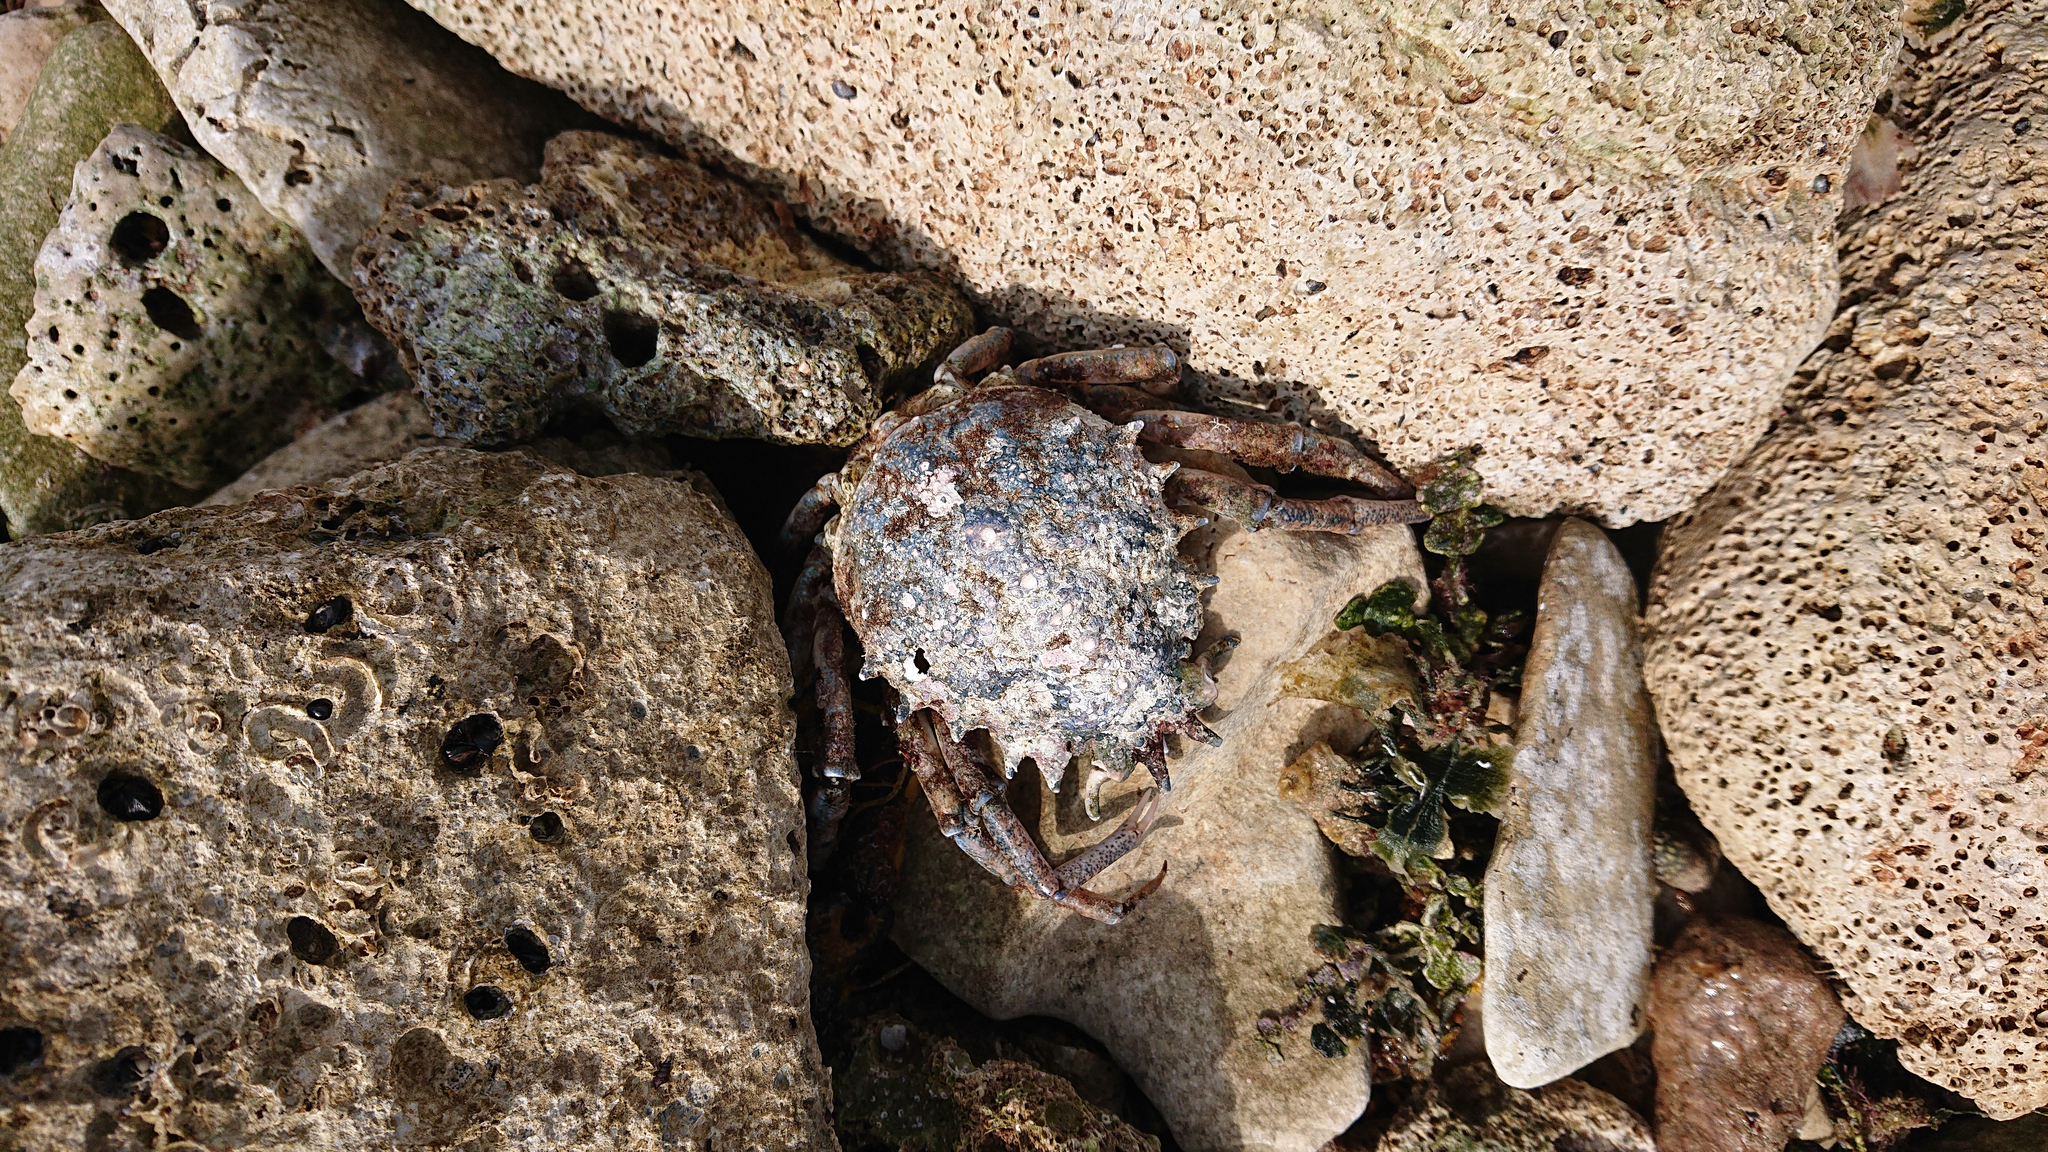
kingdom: Animalia
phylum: Arthropoda
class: Malacostraca
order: Decapoda
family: Majidae
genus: Maja
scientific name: Maja crispata
